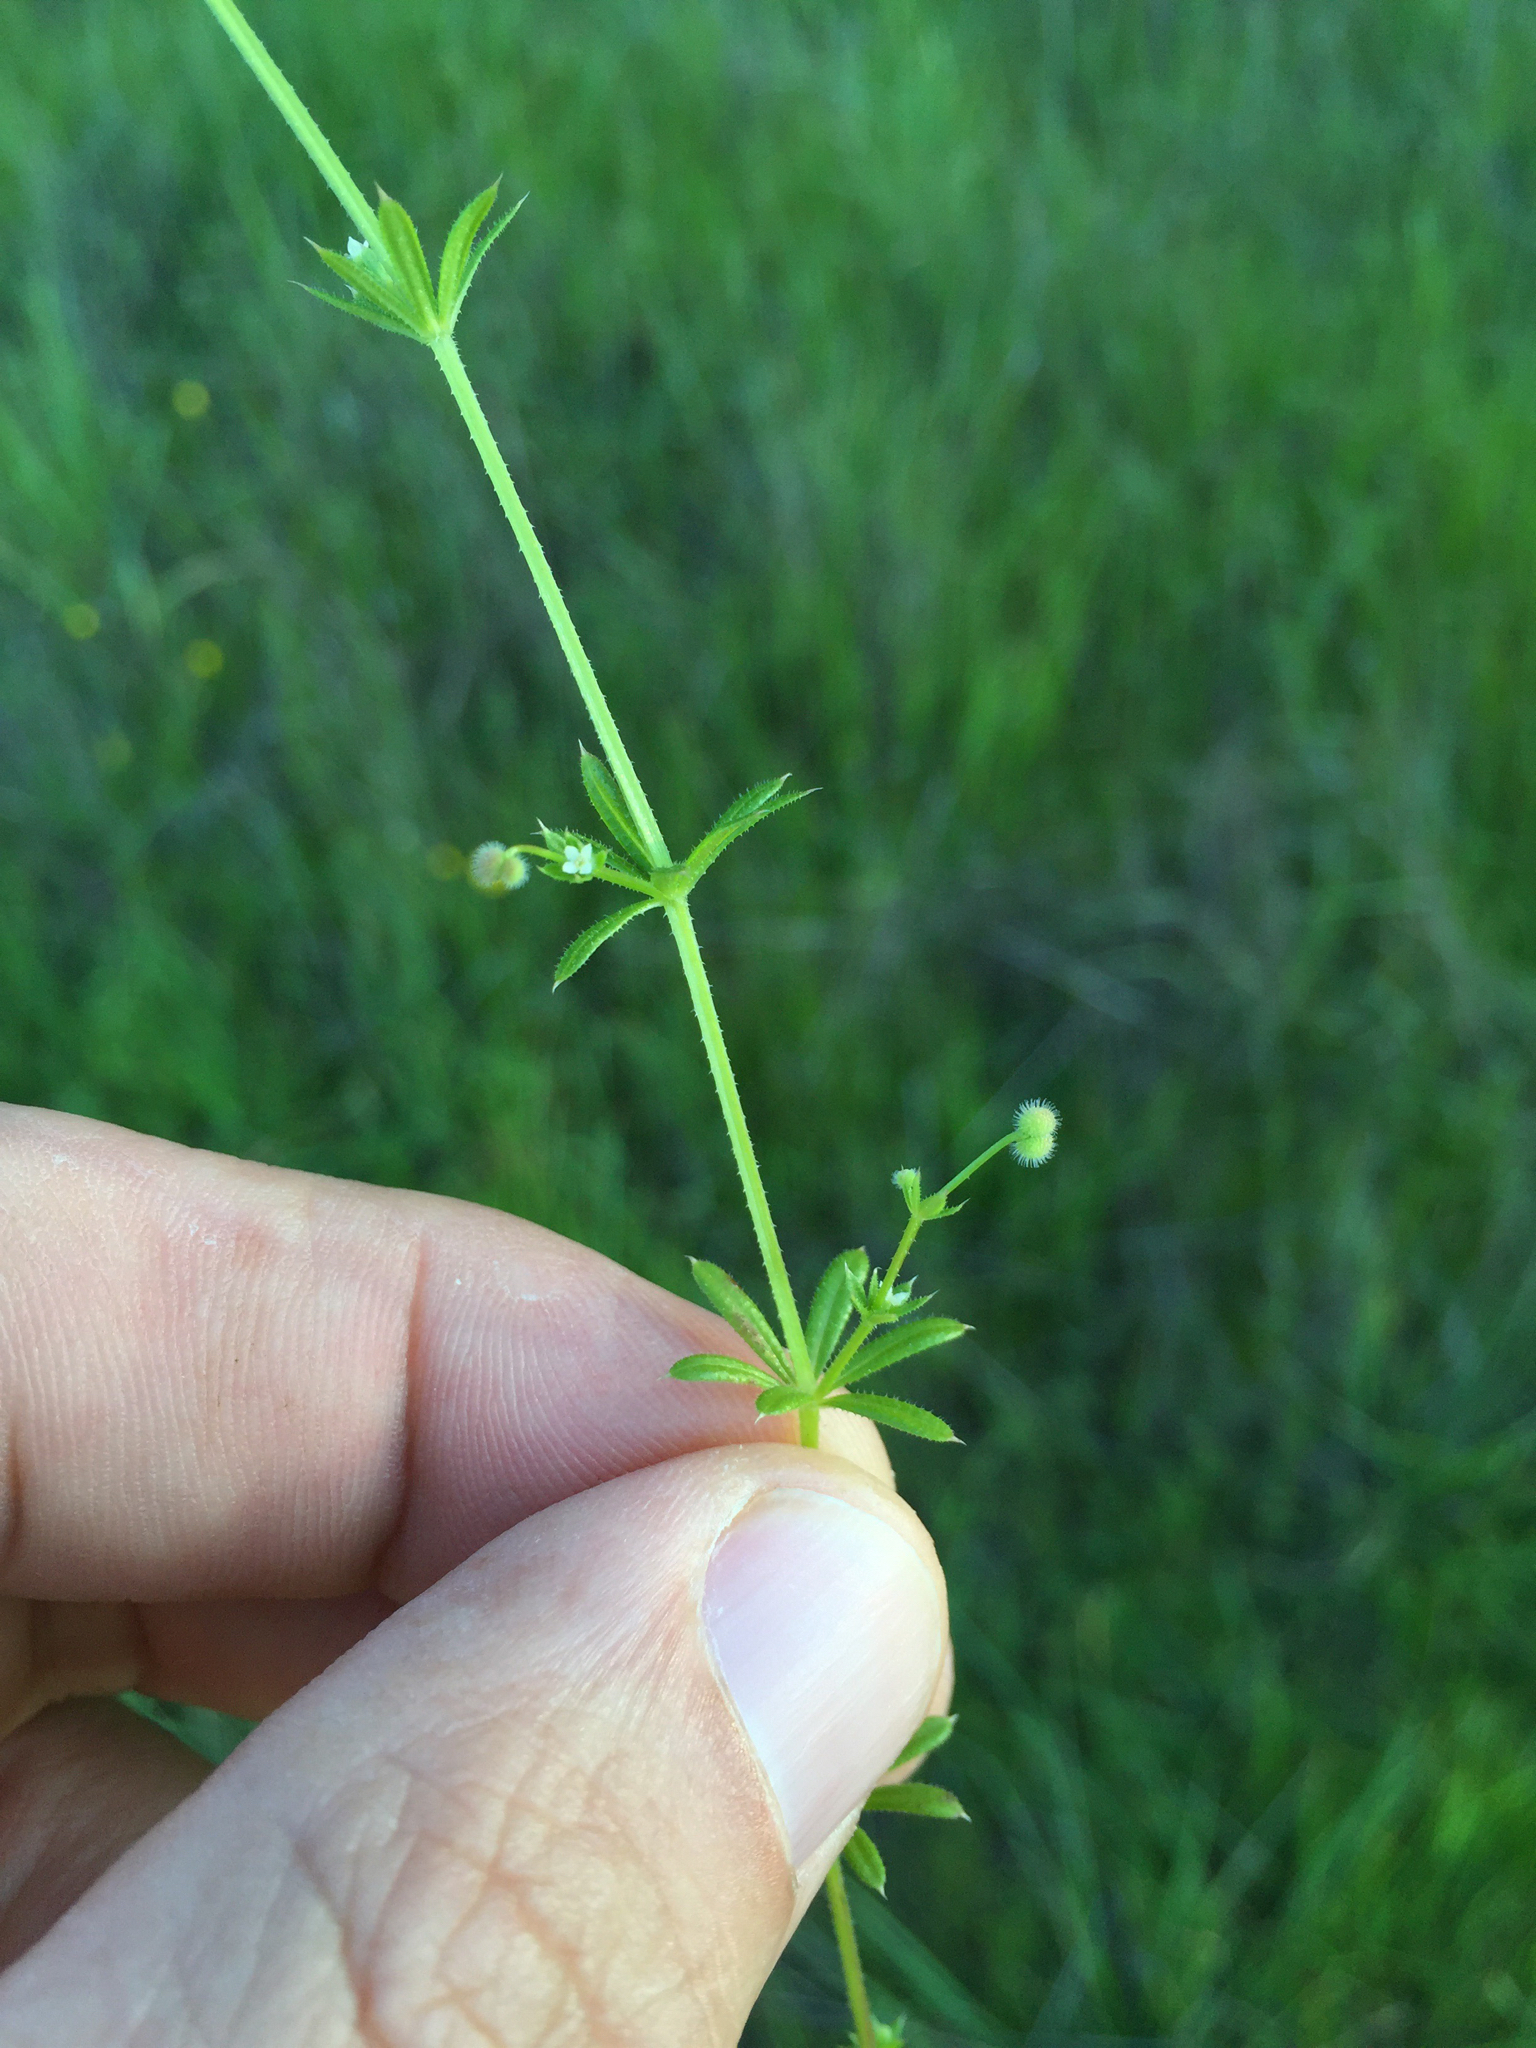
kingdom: Plantae
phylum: Tracheophyta
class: Magnoliopsida
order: Gentianales
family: Rubiaceae
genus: Galium
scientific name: Galium aparine
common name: Cleavers
